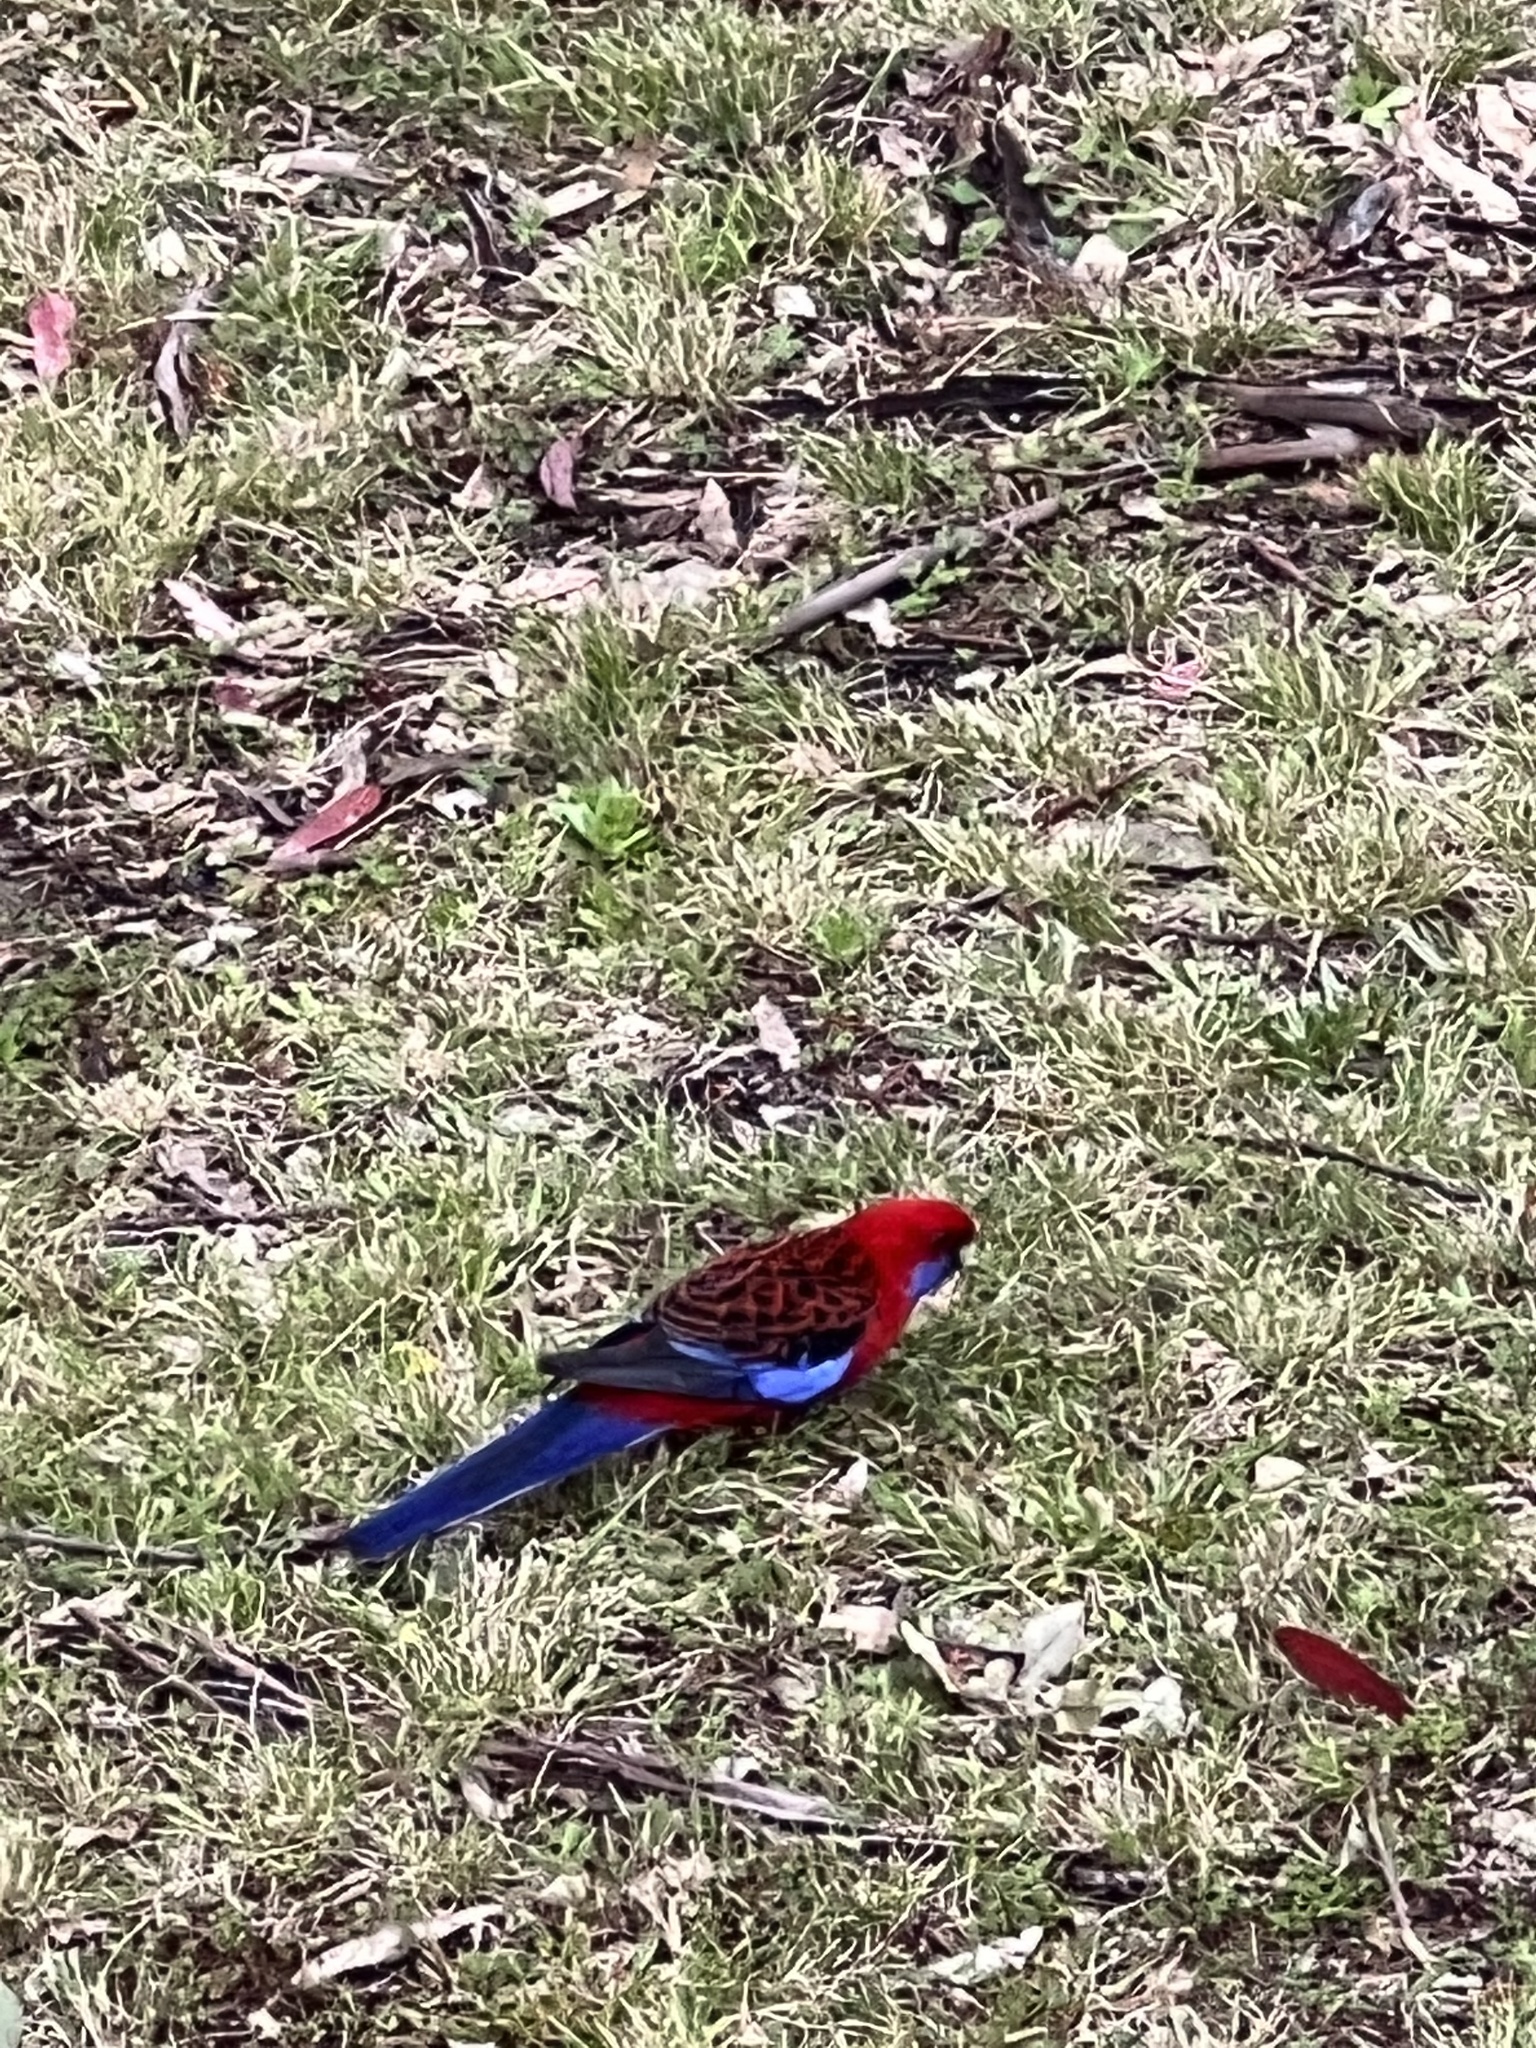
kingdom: Animalia
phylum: Chordata
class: Aves
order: Psittaciformes
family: Psittacidae
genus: Platycercus
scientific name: Platycercus elegans
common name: Crimson rosella
